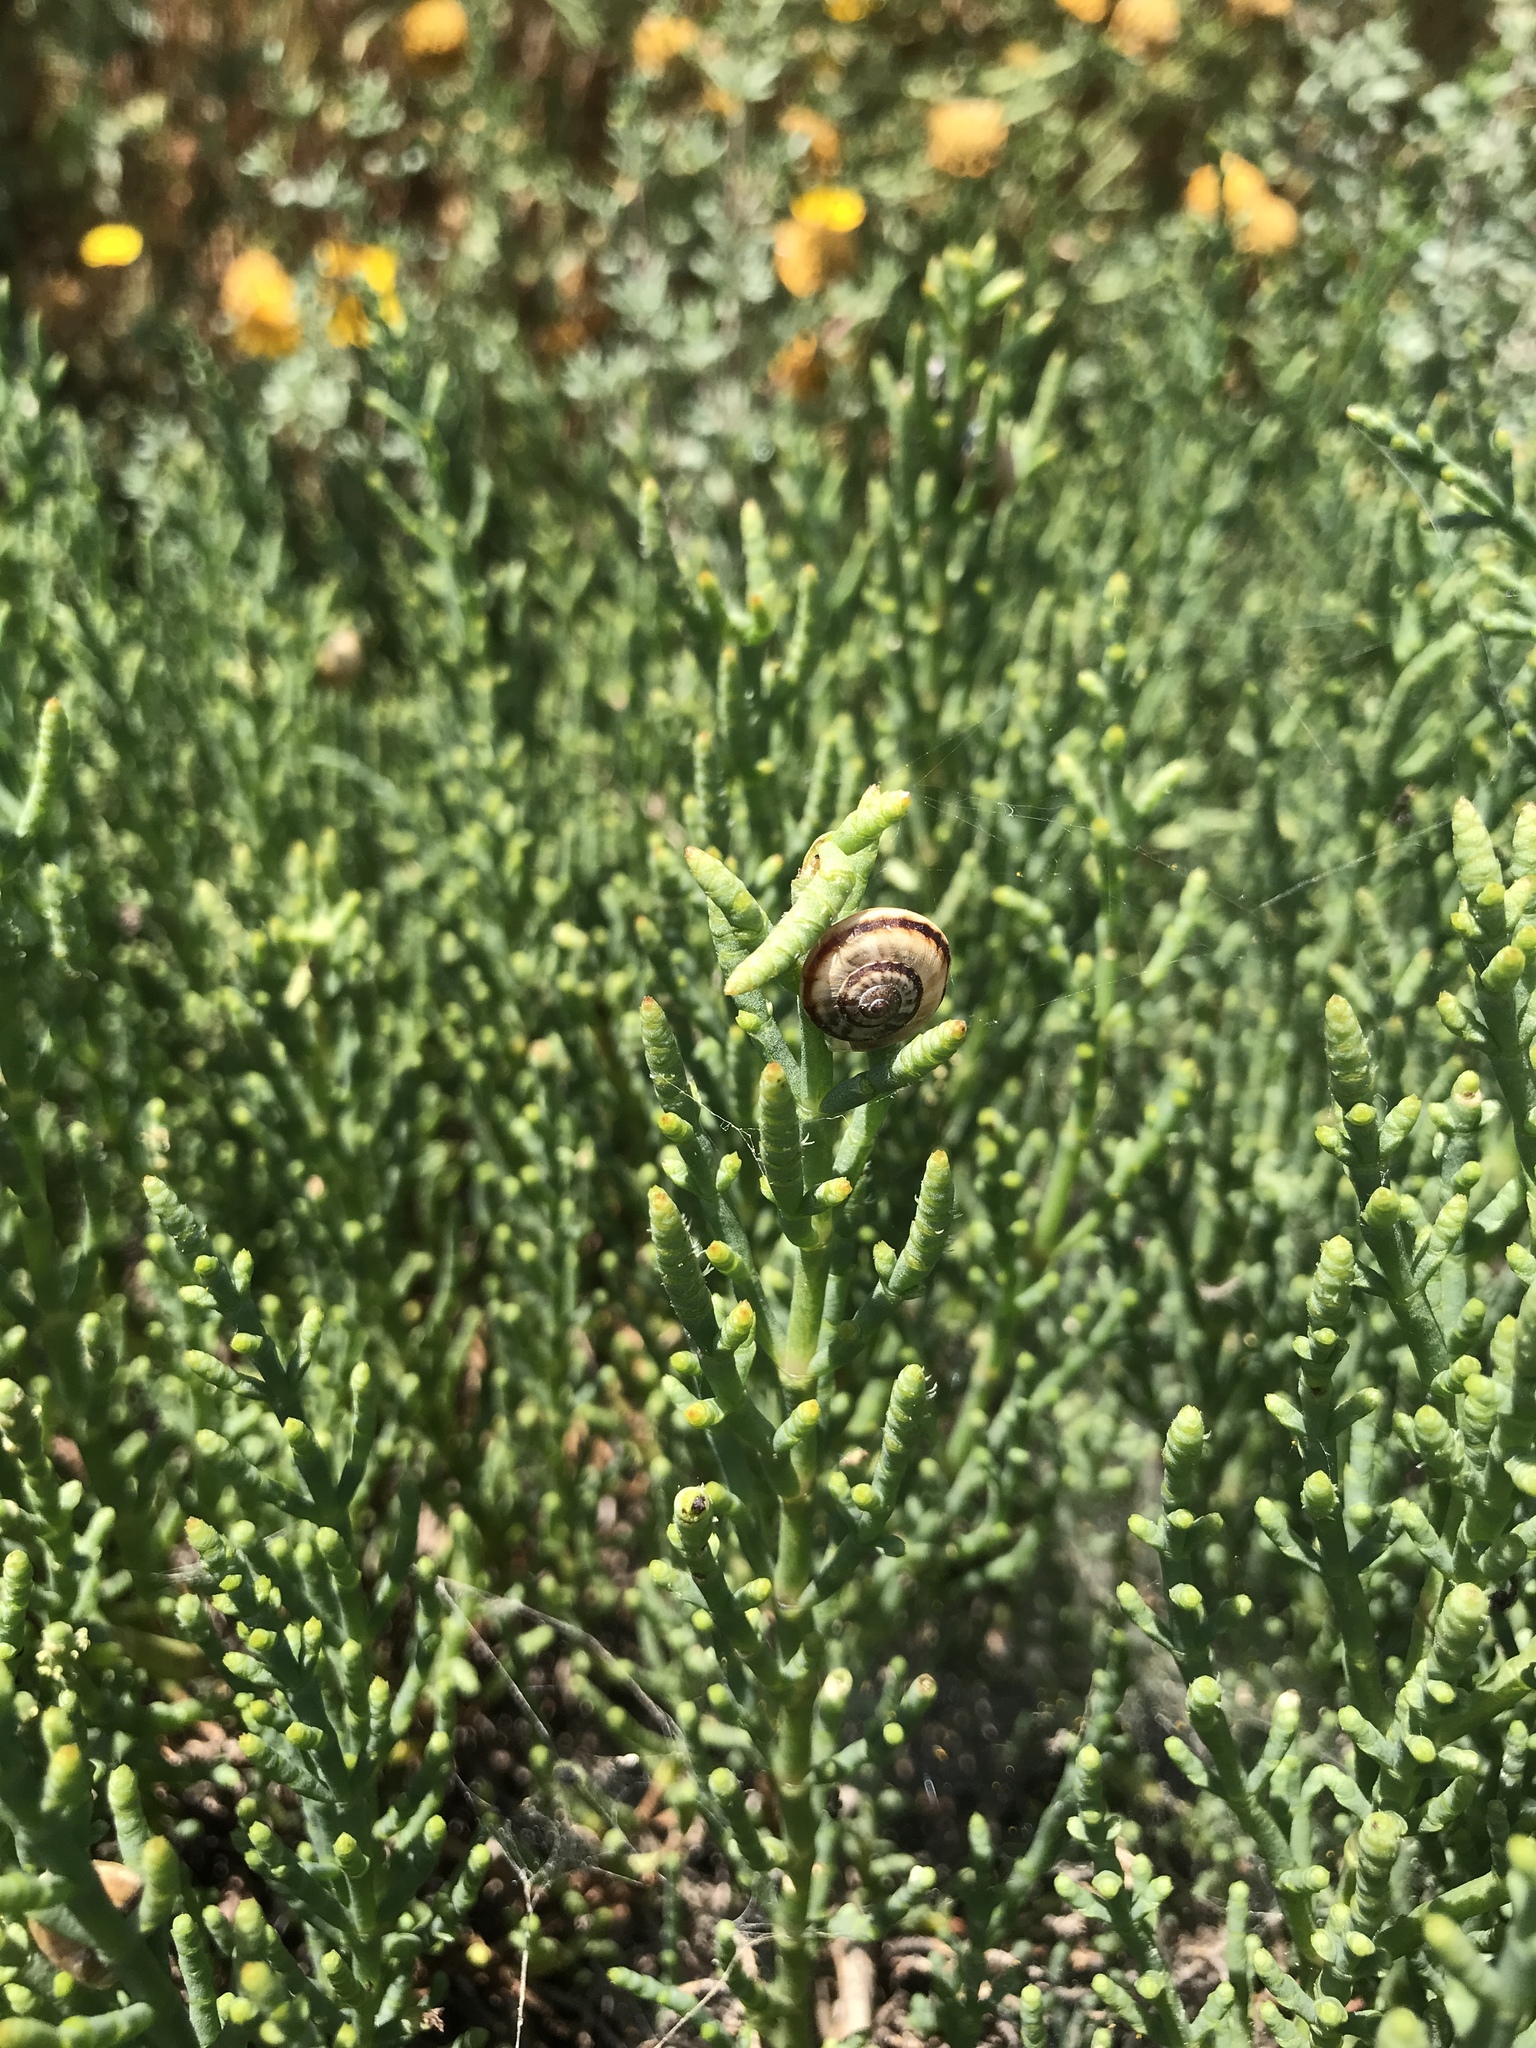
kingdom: Animalia
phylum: Mollusca
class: Gastropoda
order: Stylommatophora
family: Helicidae
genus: Theba
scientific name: Theba pisana
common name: White snail
